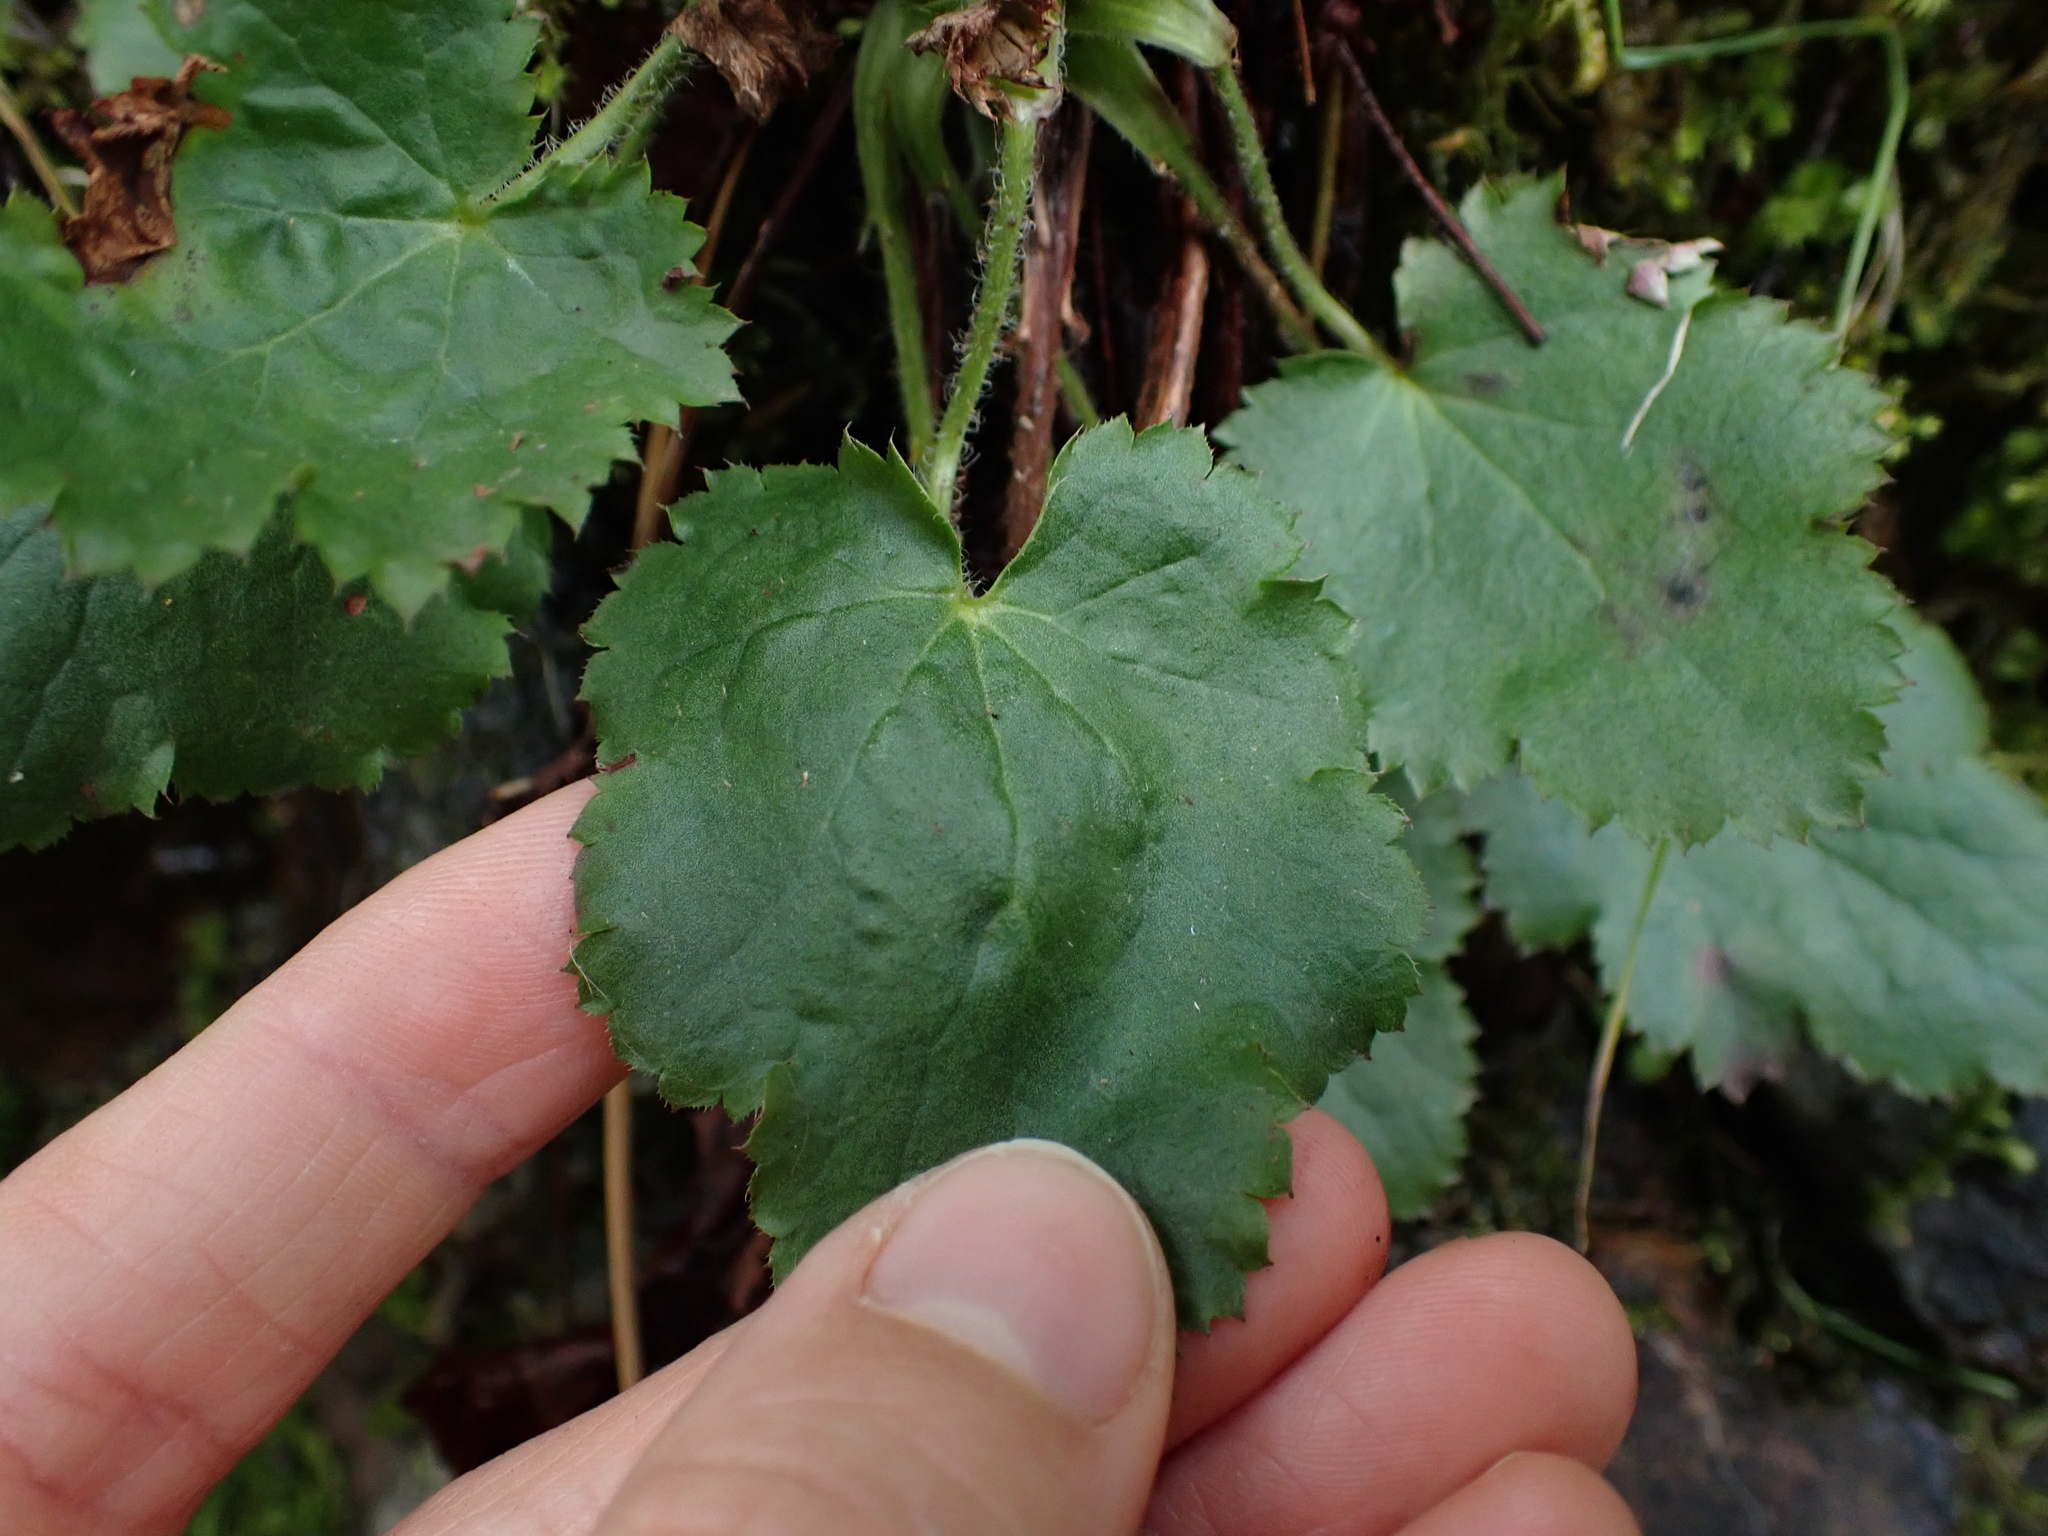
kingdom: Plantae
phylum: Tracheophyta
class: Magnoliopsida
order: Saxifragales
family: Saxifragaceae
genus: Heuchera
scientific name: Heuchera micrantha
